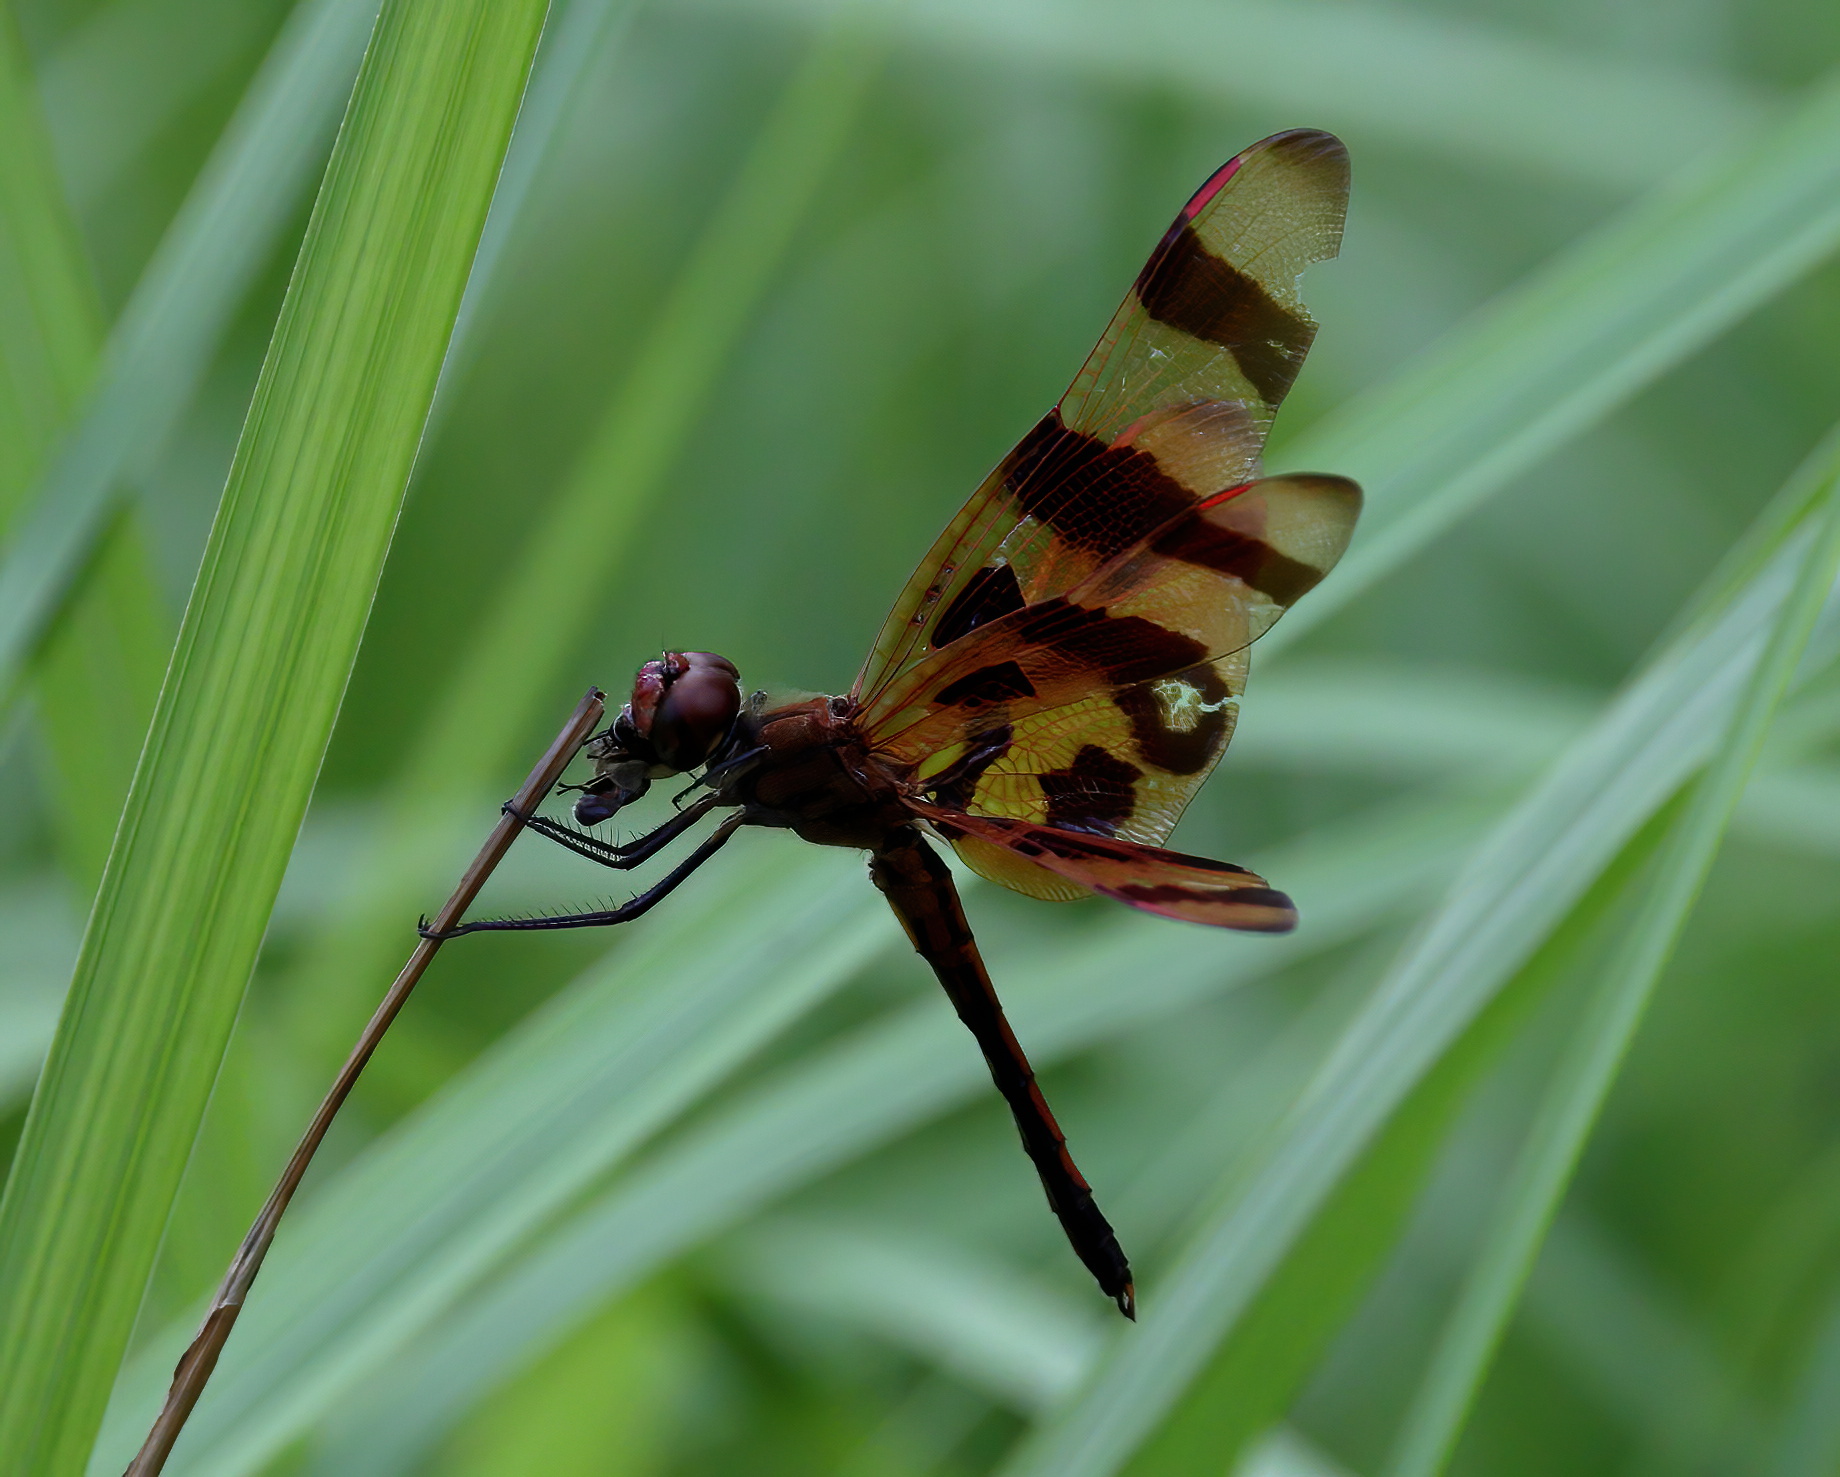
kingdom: Animalia
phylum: Arthropoda
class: Insecta
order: Odonata
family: Libellulidae
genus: Celithemis
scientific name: Celithemis eponina
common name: Halloween pennant
